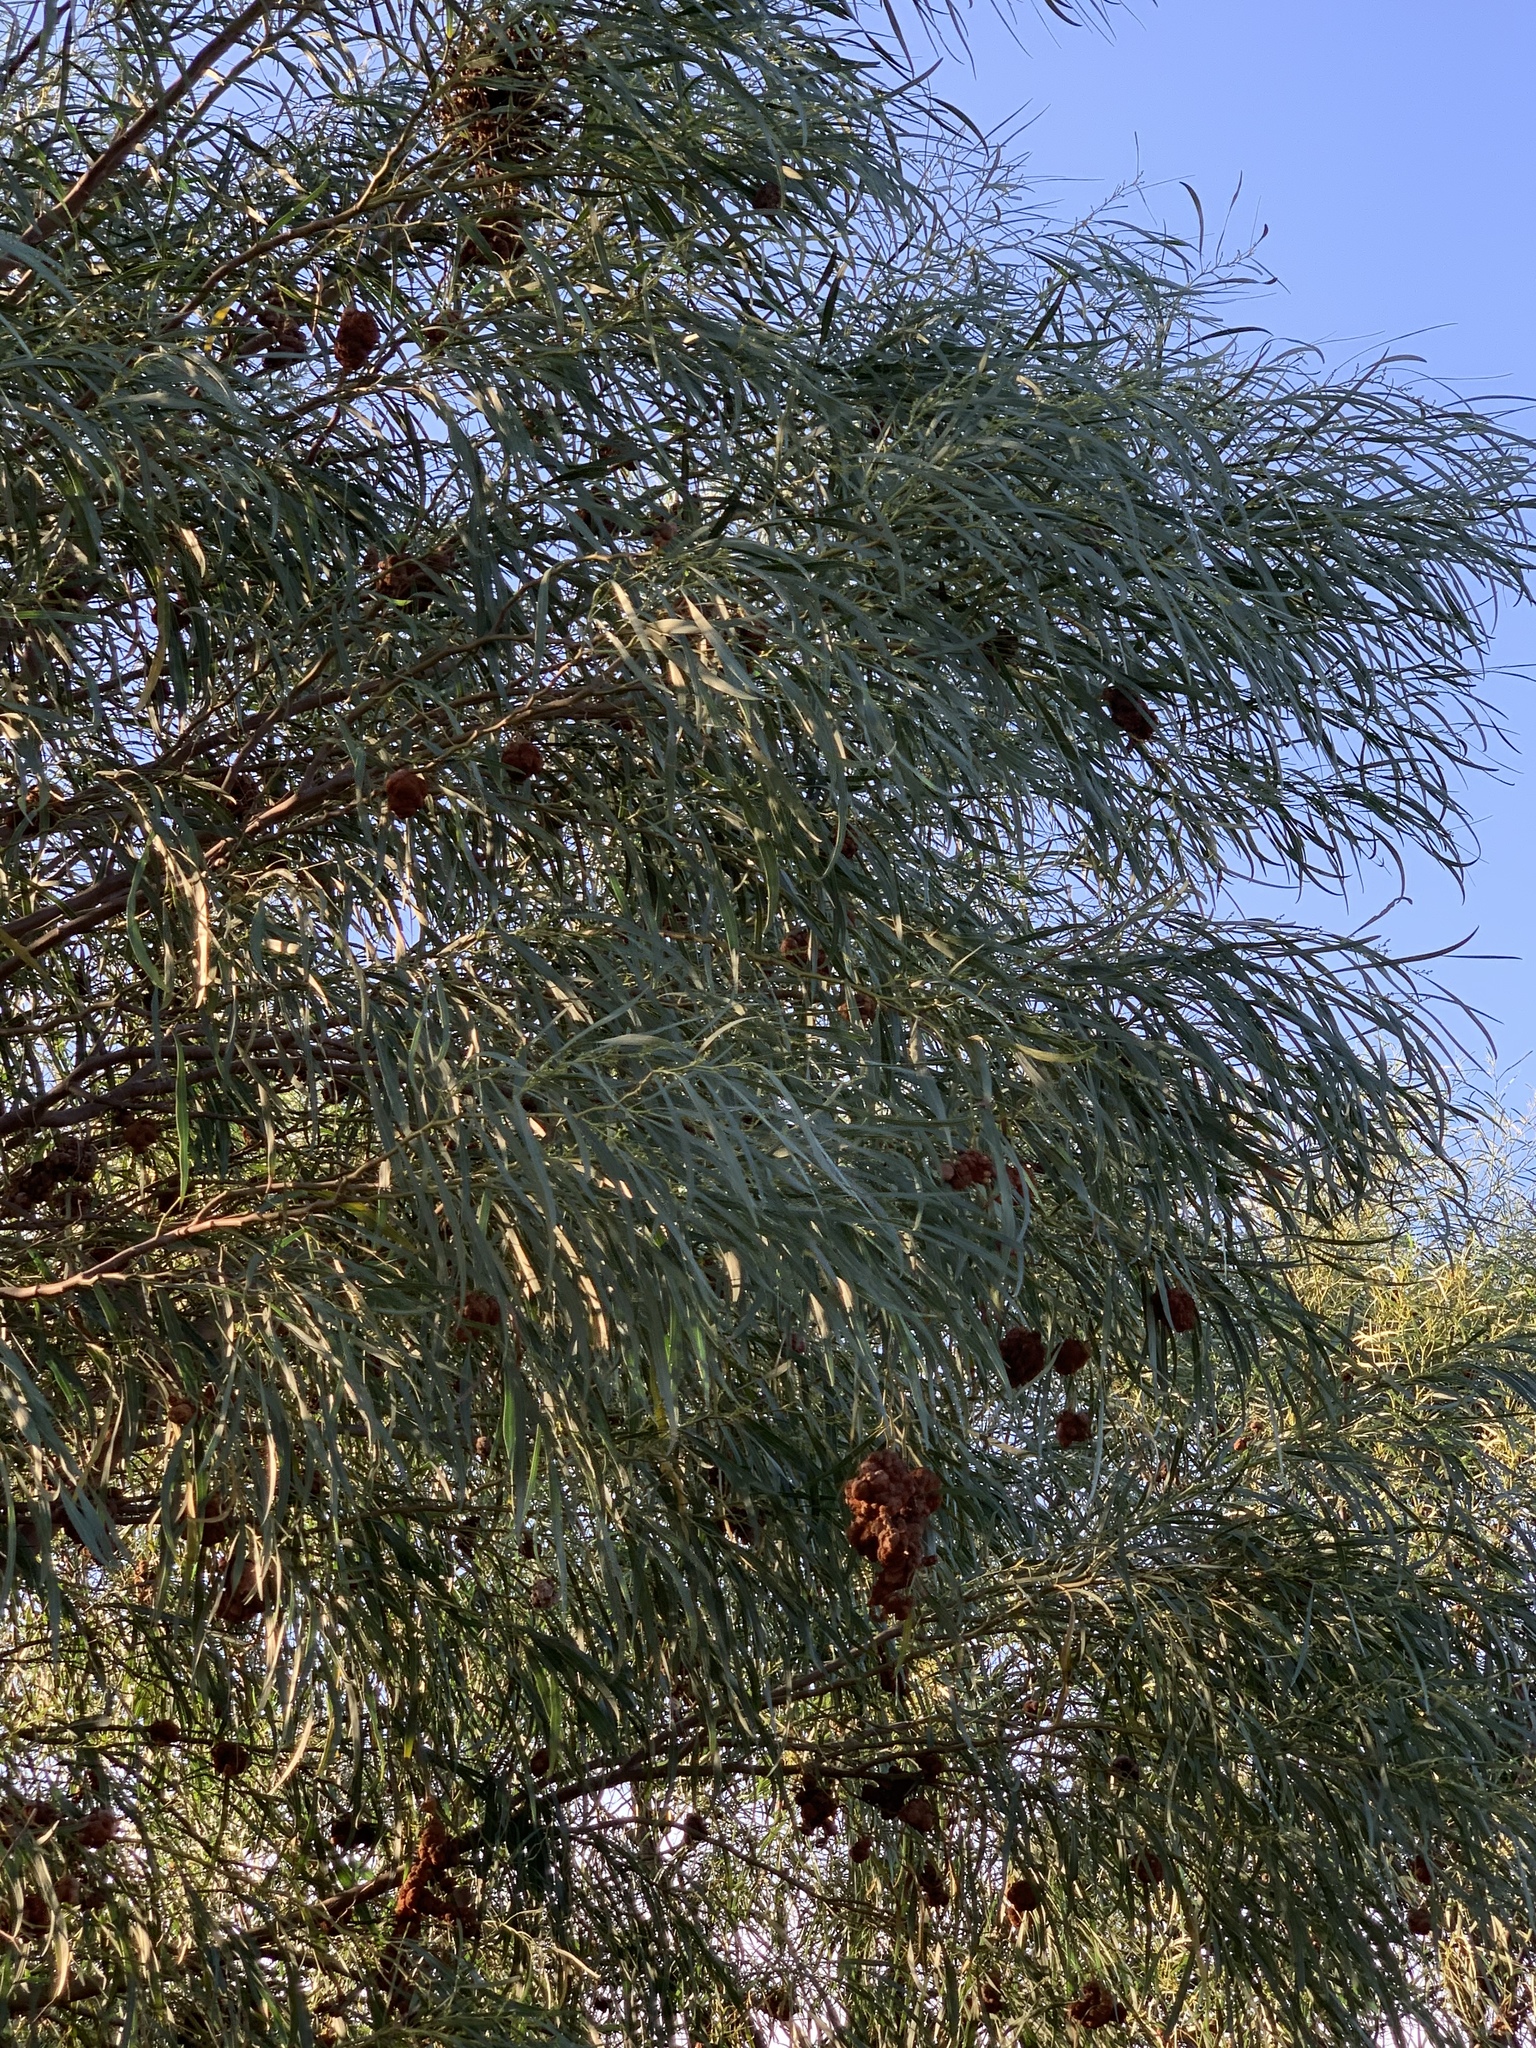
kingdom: Plantae
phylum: Tracheophyta
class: Magnoliopsida
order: Fabales
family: Fabaceae
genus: Acacia
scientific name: Acacia saligna
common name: Orange wattle
